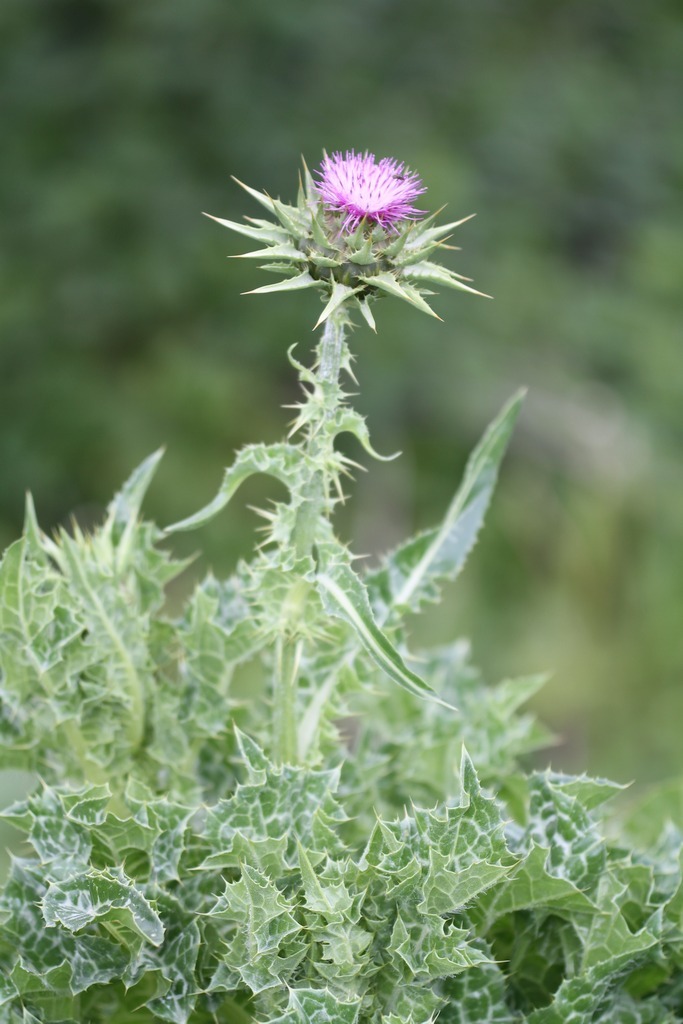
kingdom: Plantae
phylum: Tracheophyta
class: Magnoliopsida
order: Asterales
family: Asteraceae
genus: Silybum
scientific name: Silybum marianum
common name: Milk thistle
